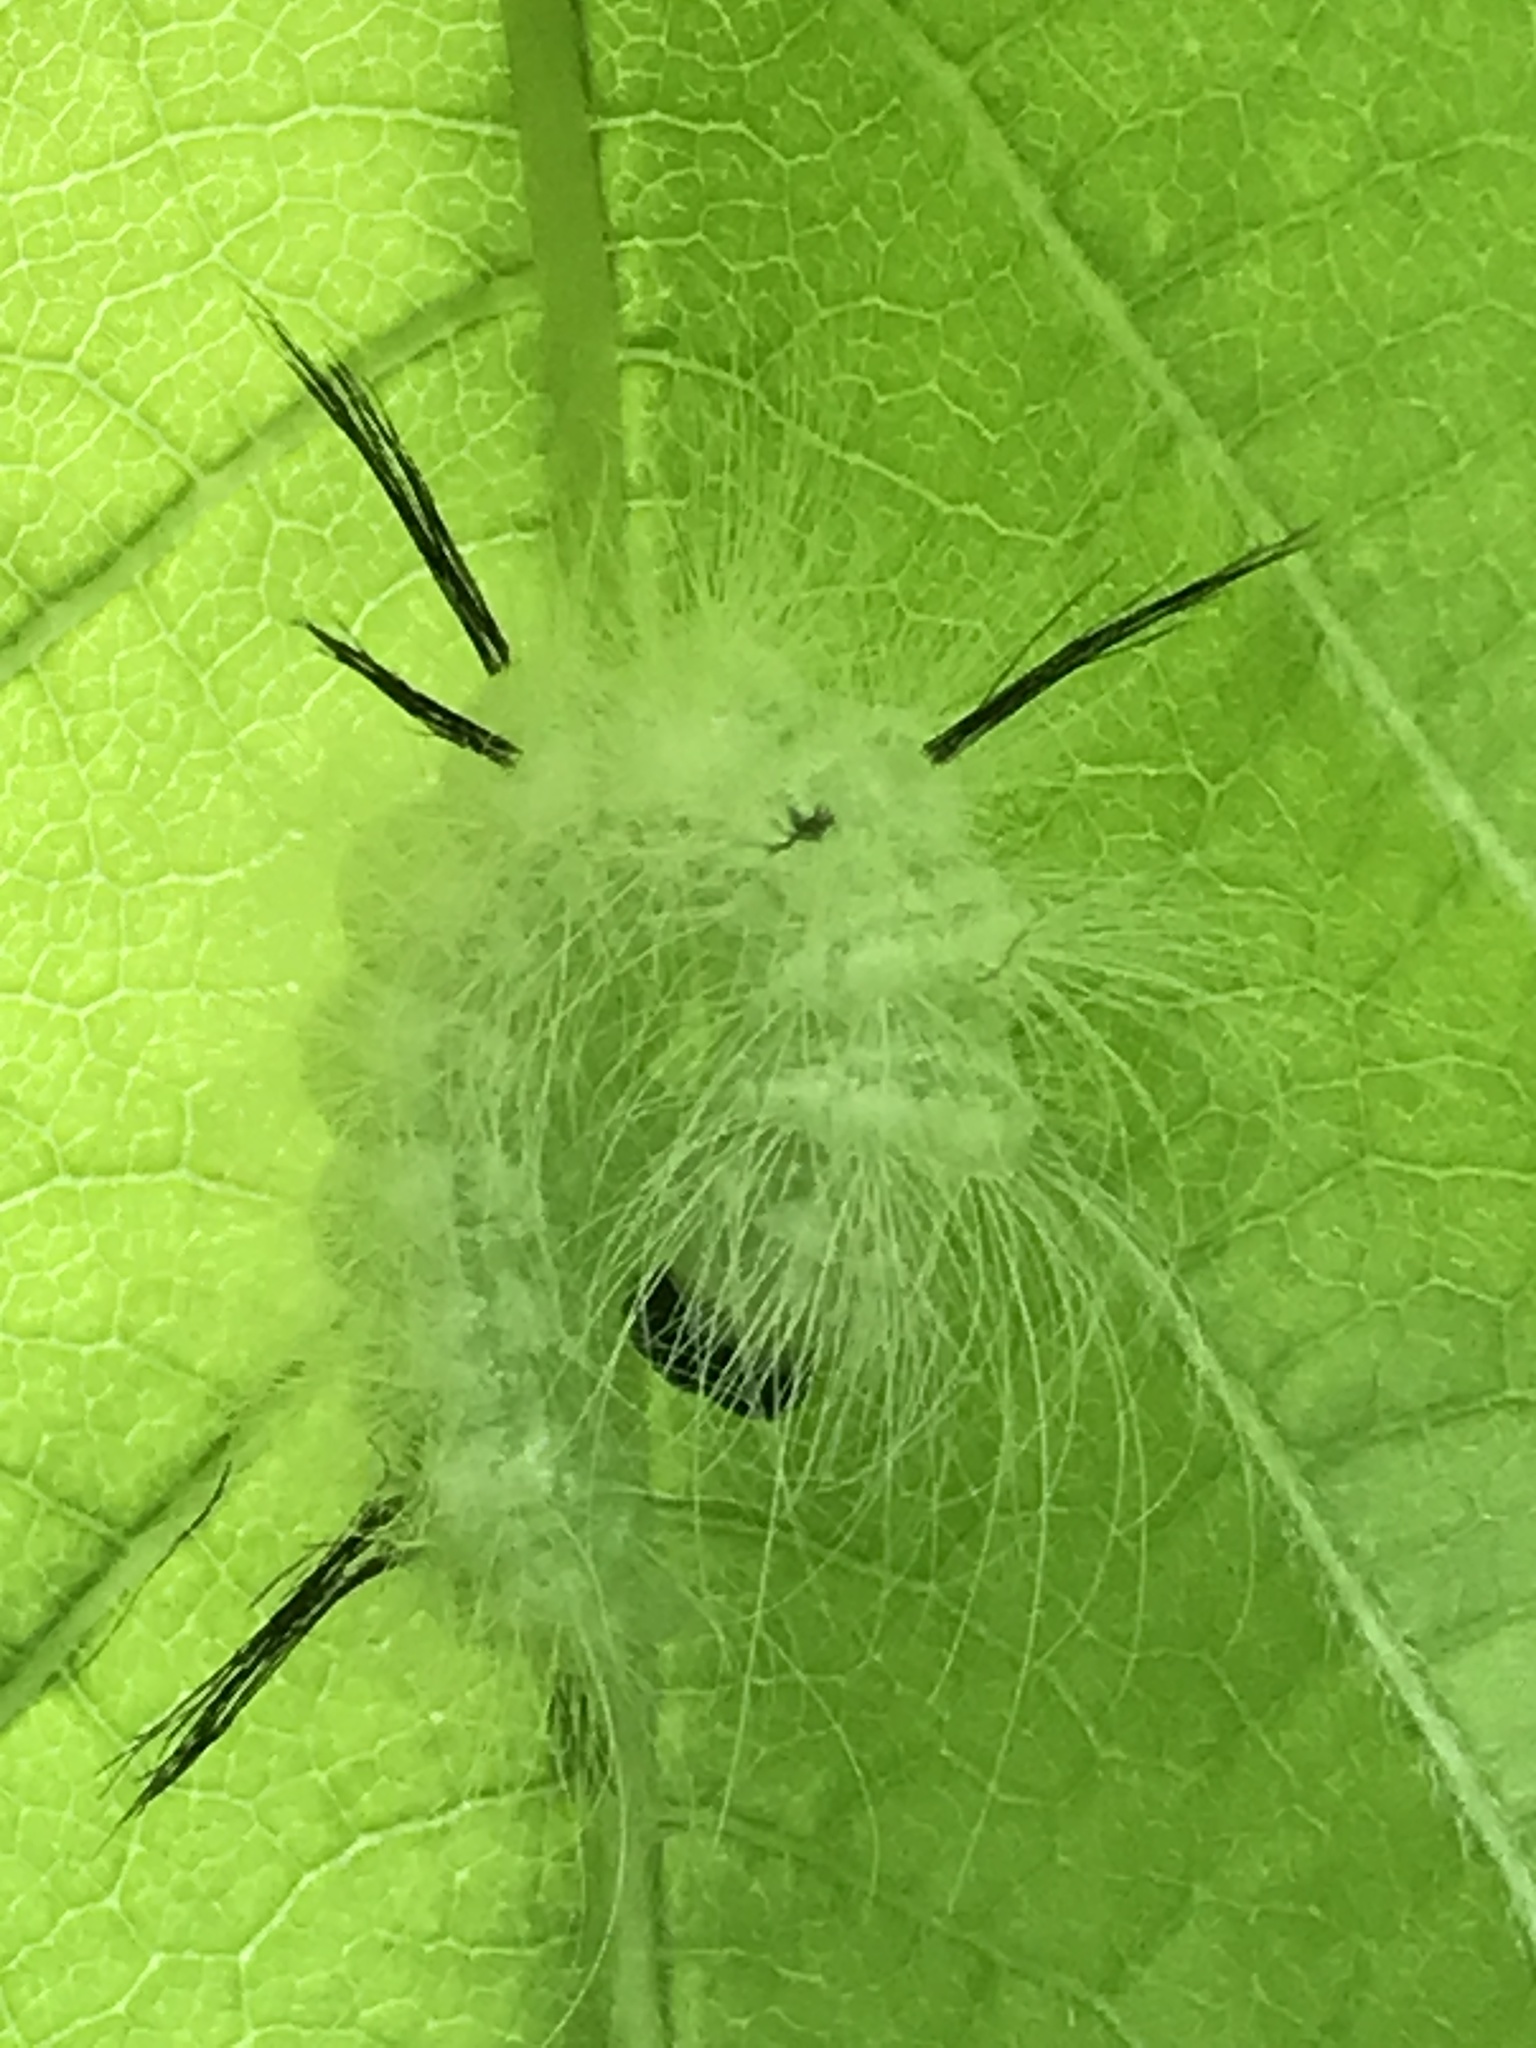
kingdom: Animalia
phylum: Arthropoda
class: Insecta
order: Lepidoptera
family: Noctuidae
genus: Acronicta
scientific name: Acronicta americana
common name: American dagger
